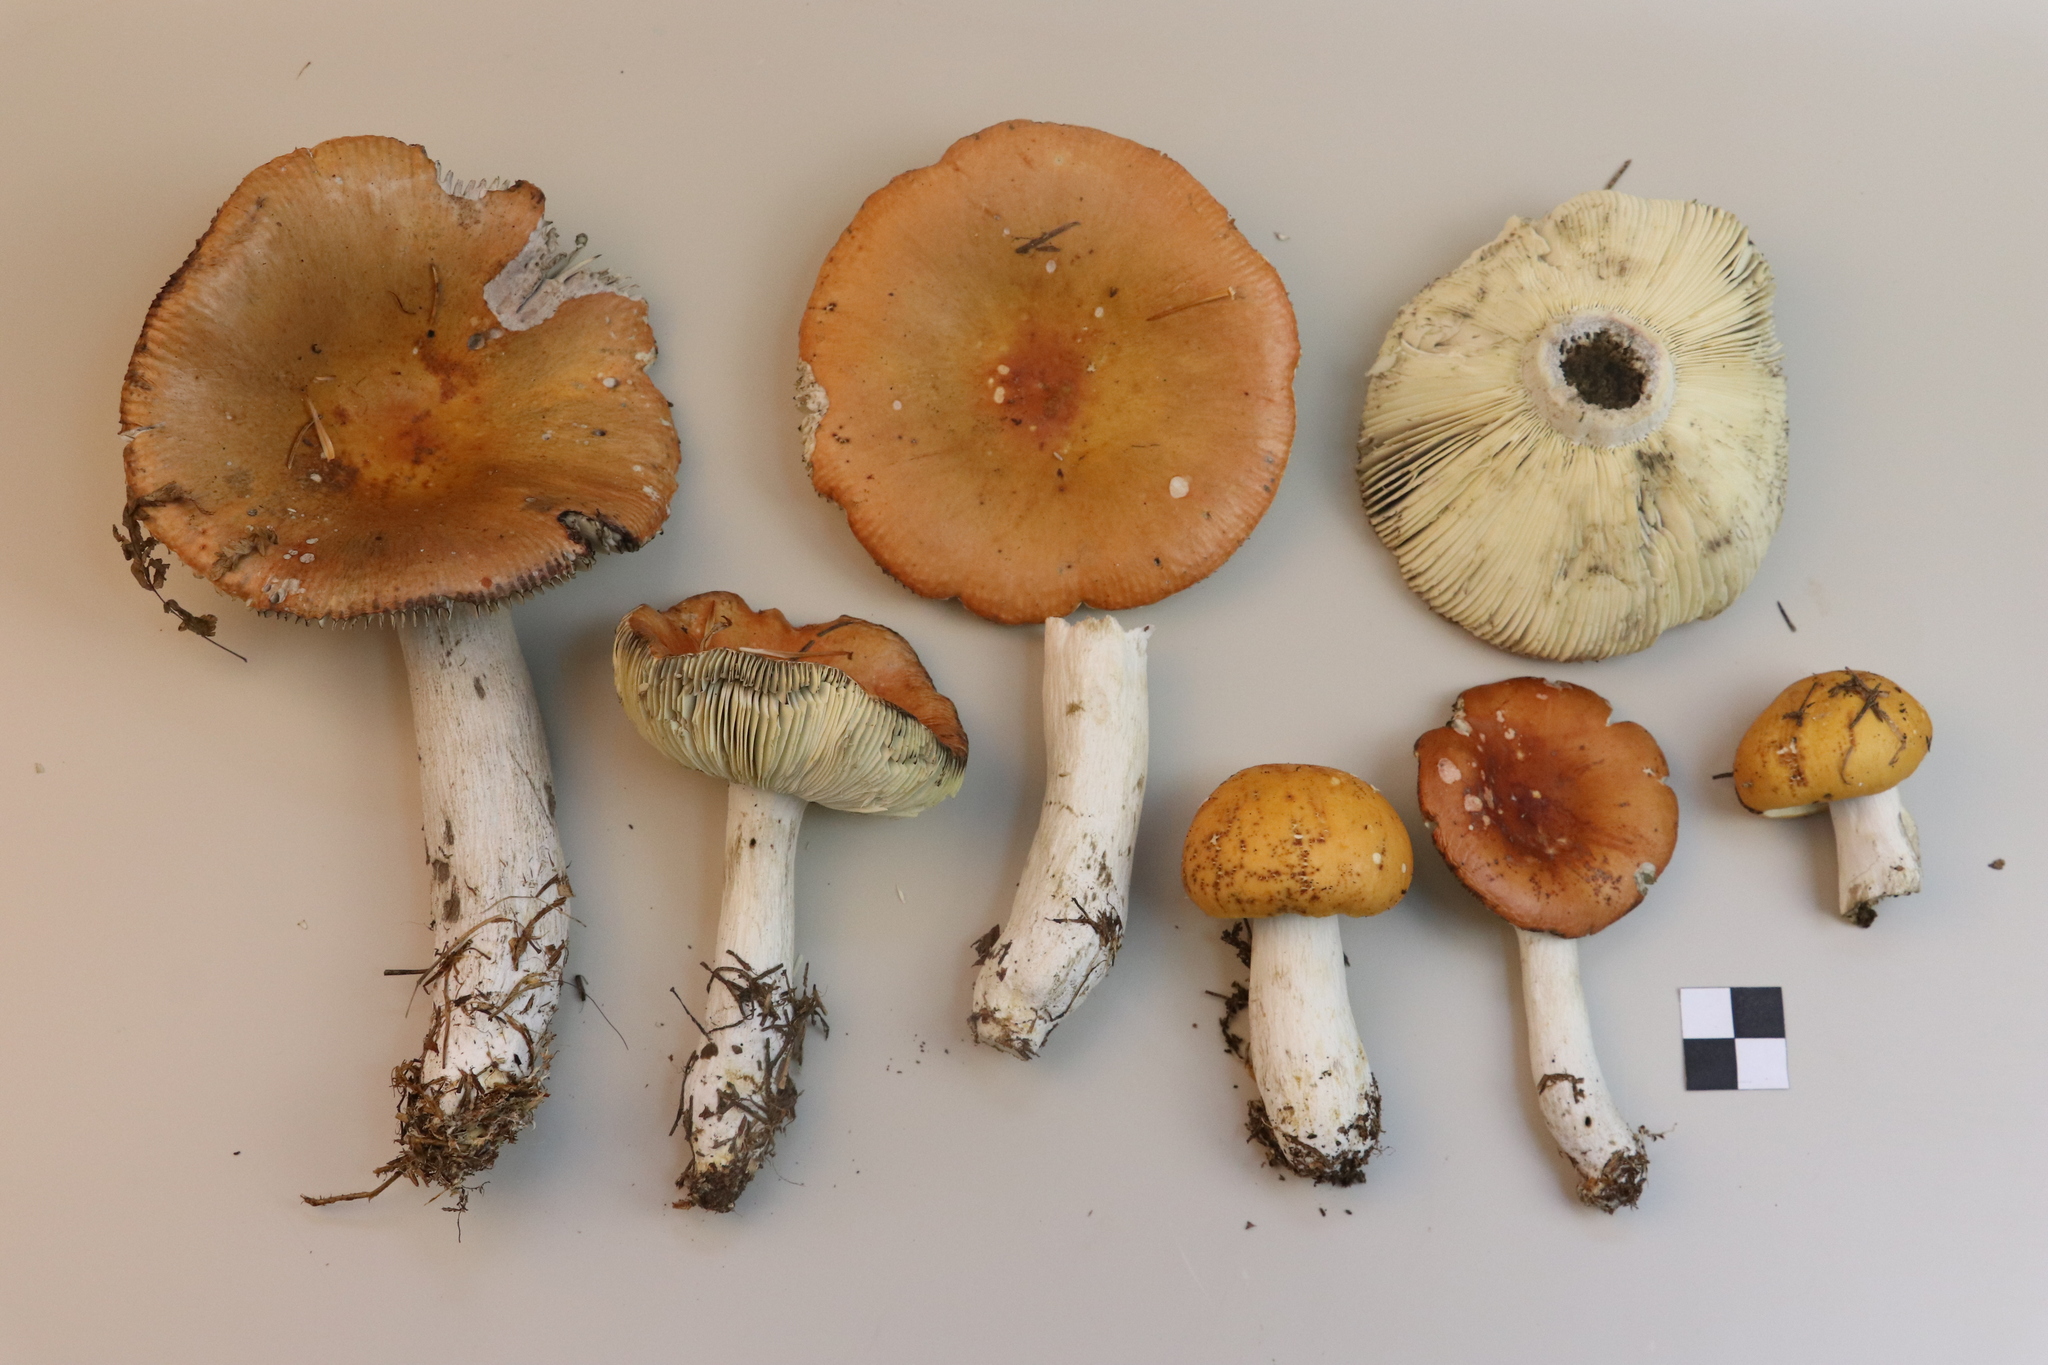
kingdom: Fungi
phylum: Basidiomycota
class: Agaricomycetes
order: Russulales
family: Russulaceae
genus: Russula
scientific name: Russula decolorans
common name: Copper brittlegill
